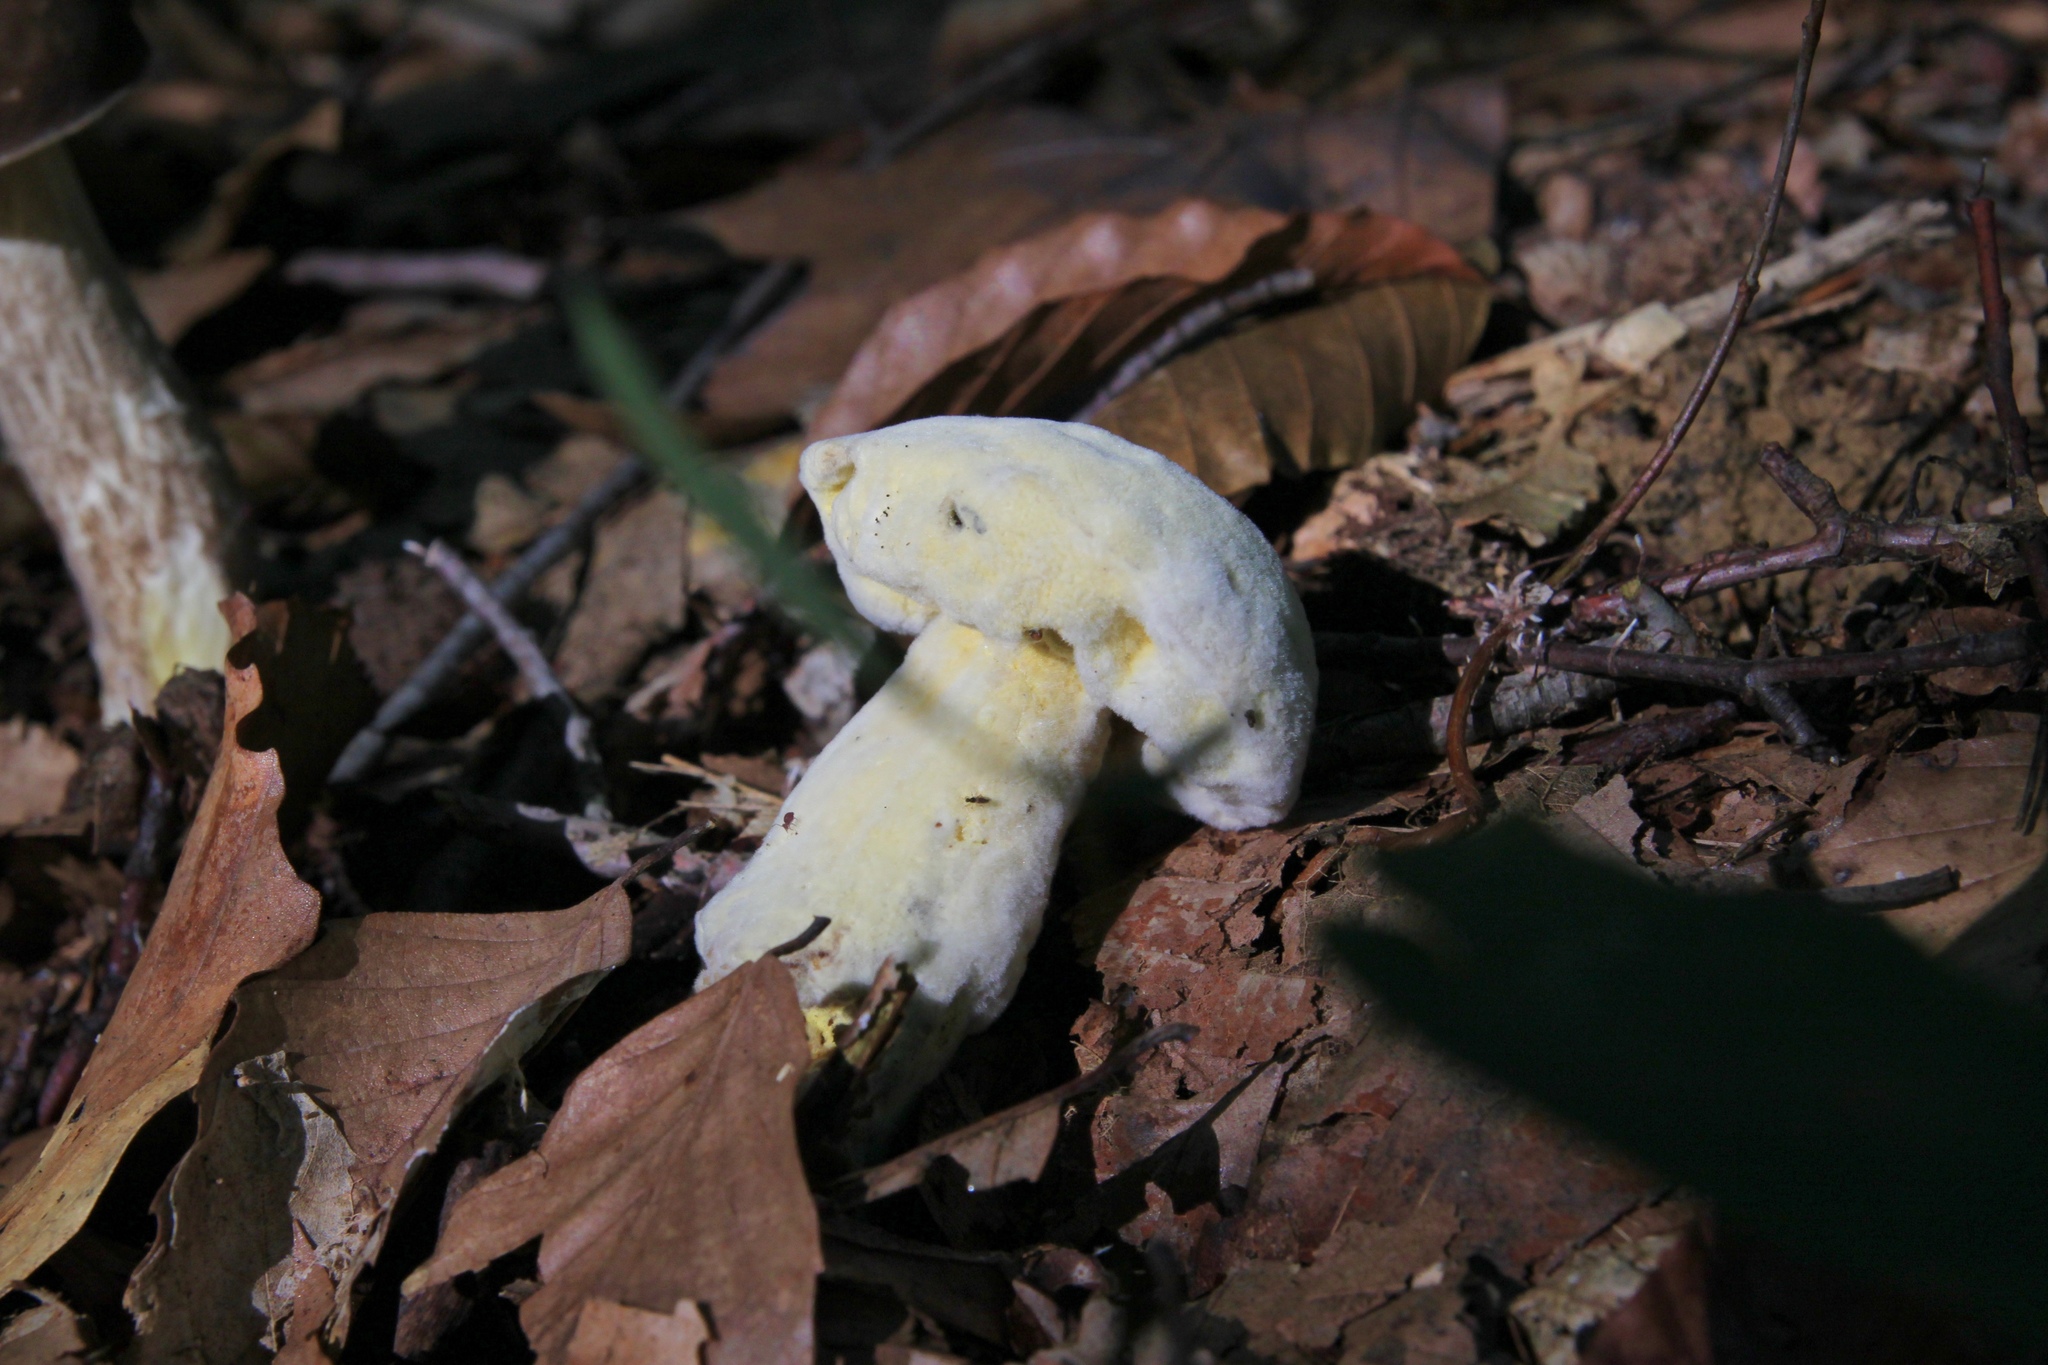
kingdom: Fungi
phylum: Ascomycota
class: Sordariomycetes
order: Hypocreales
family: Hypocreaceae
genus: Hypomyces
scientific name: Hypomyces chrysospermus
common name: Bolete mould
